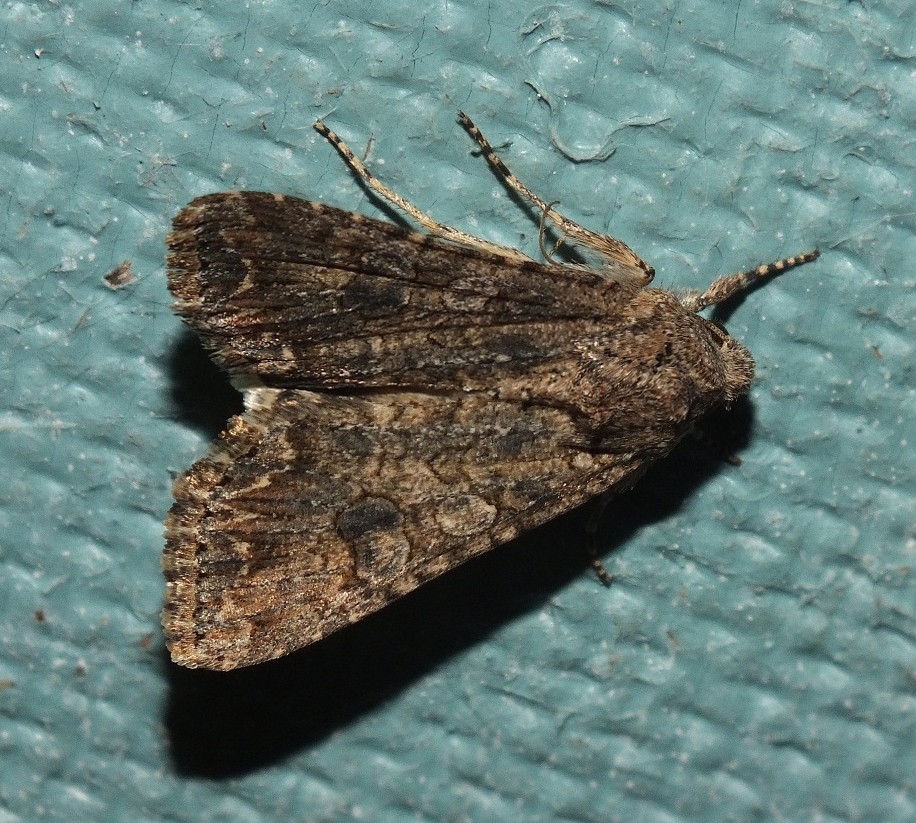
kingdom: Animalia
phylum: Arthropoda
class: Insecta
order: Lepidoptera
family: Noctuidae
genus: Anarta
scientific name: Anarta trifolii
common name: Clover cutworm moth
